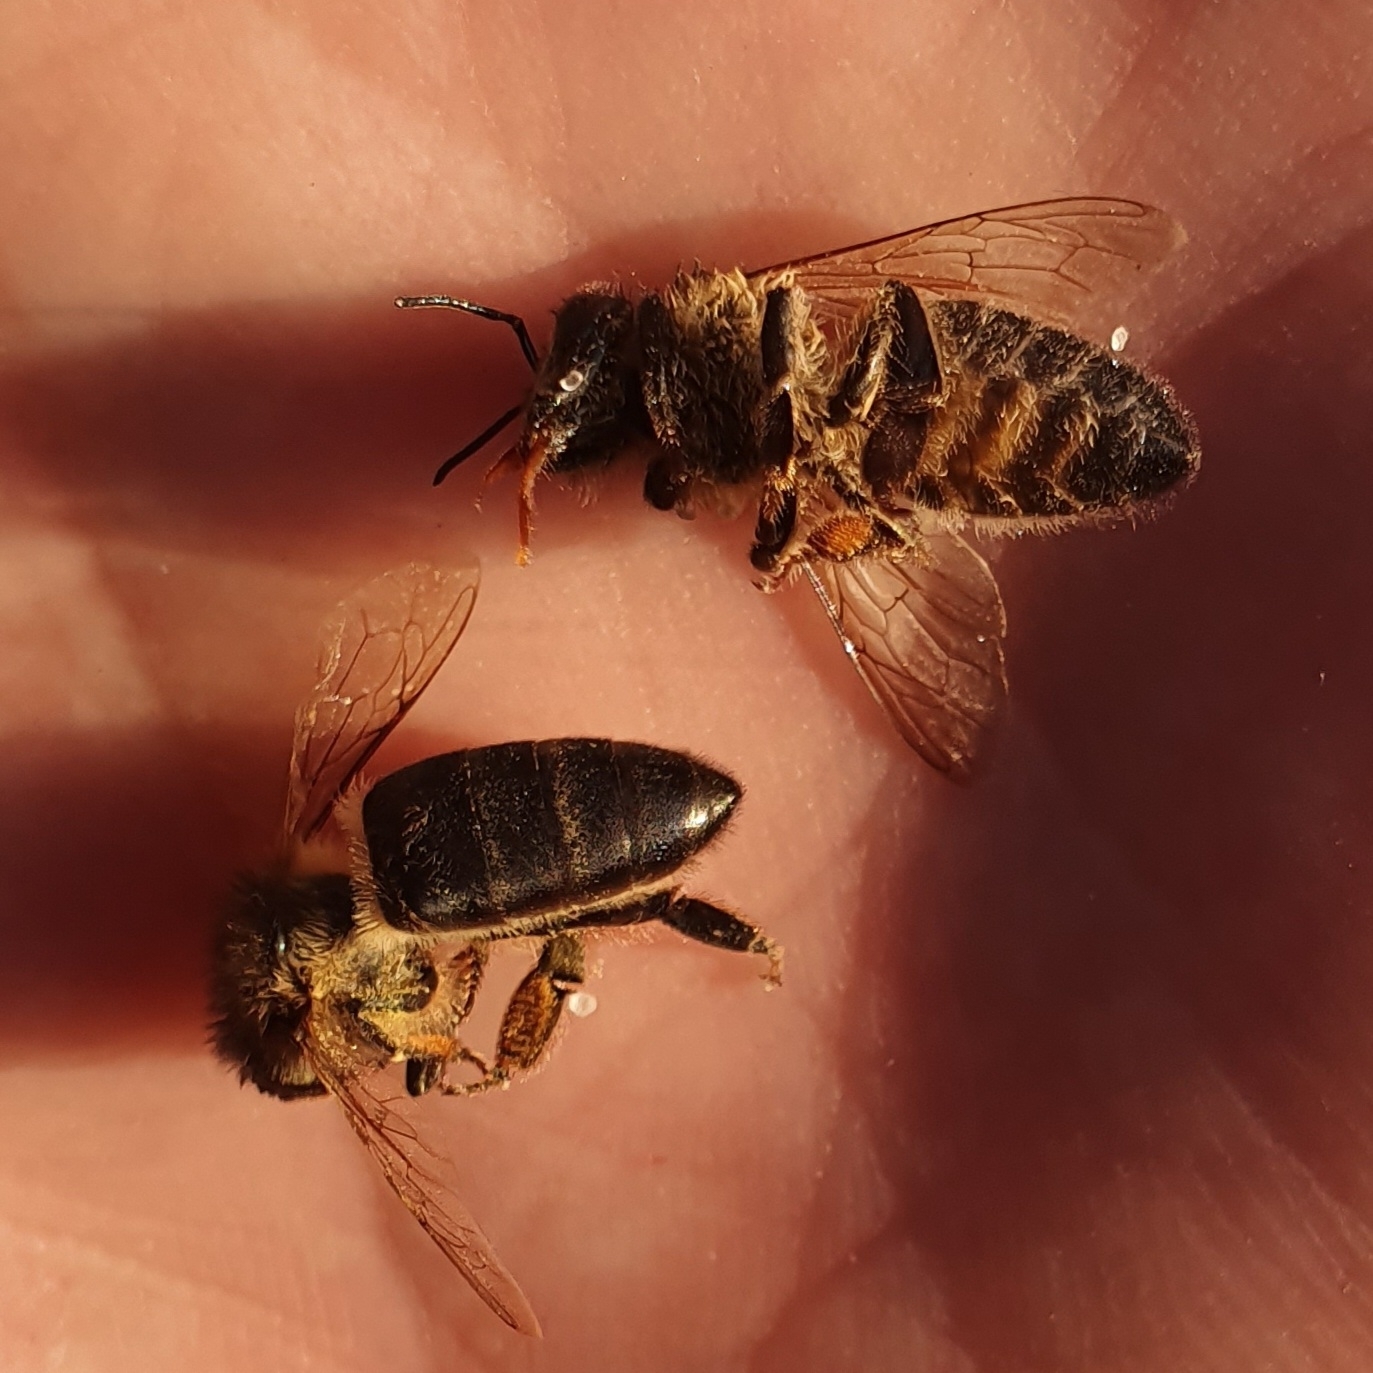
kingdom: Animalia
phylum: Arthropoda
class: Insecta
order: Hymenoptera
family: Apidae
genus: Apis
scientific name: Apis mellifera
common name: Honey bee
